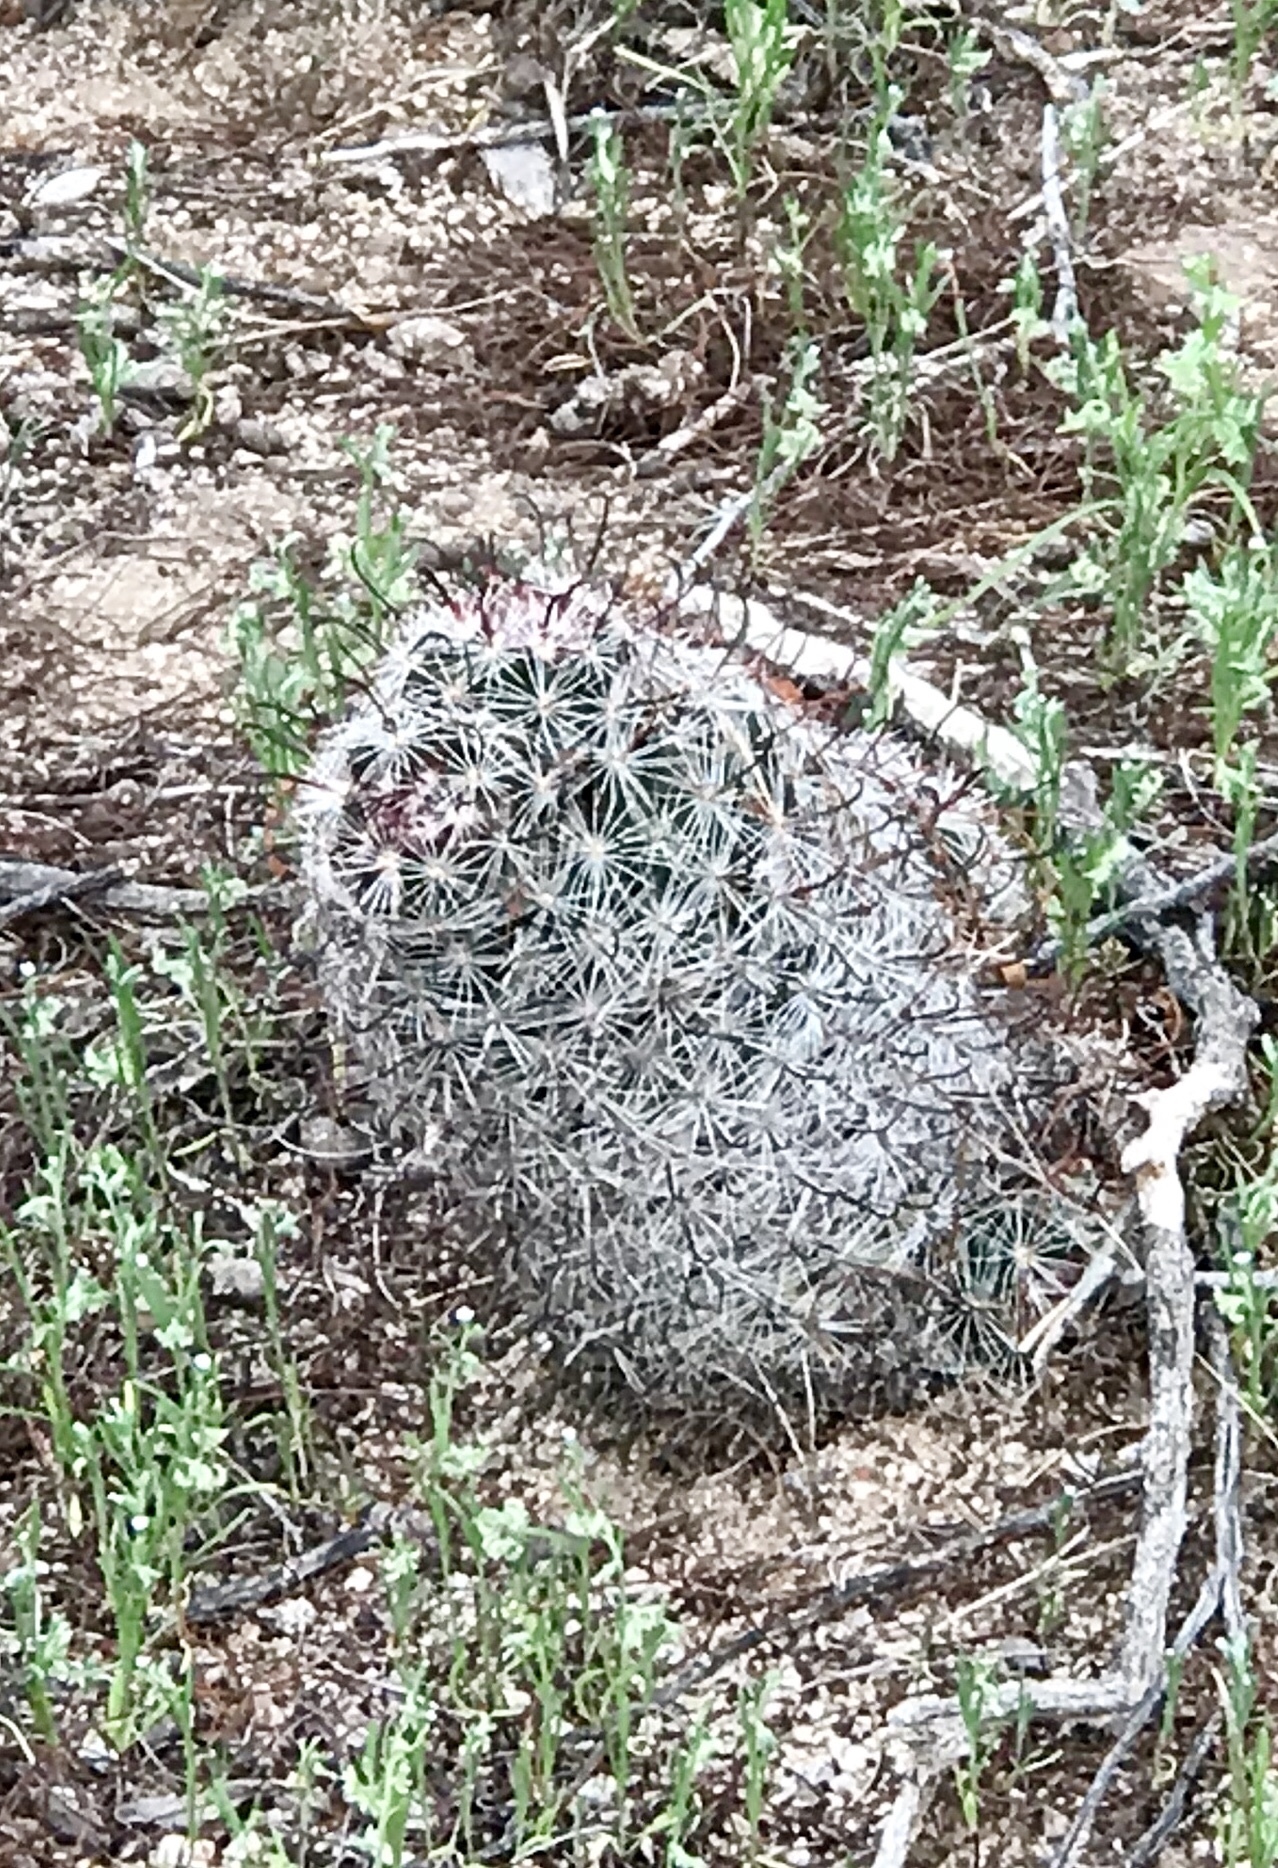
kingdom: Plantae
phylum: Tracheophyta
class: Magnoliopsida
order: Caryophyllales
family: Cactaceae
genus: Cochemiea
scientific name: Cochemiea grahamii
